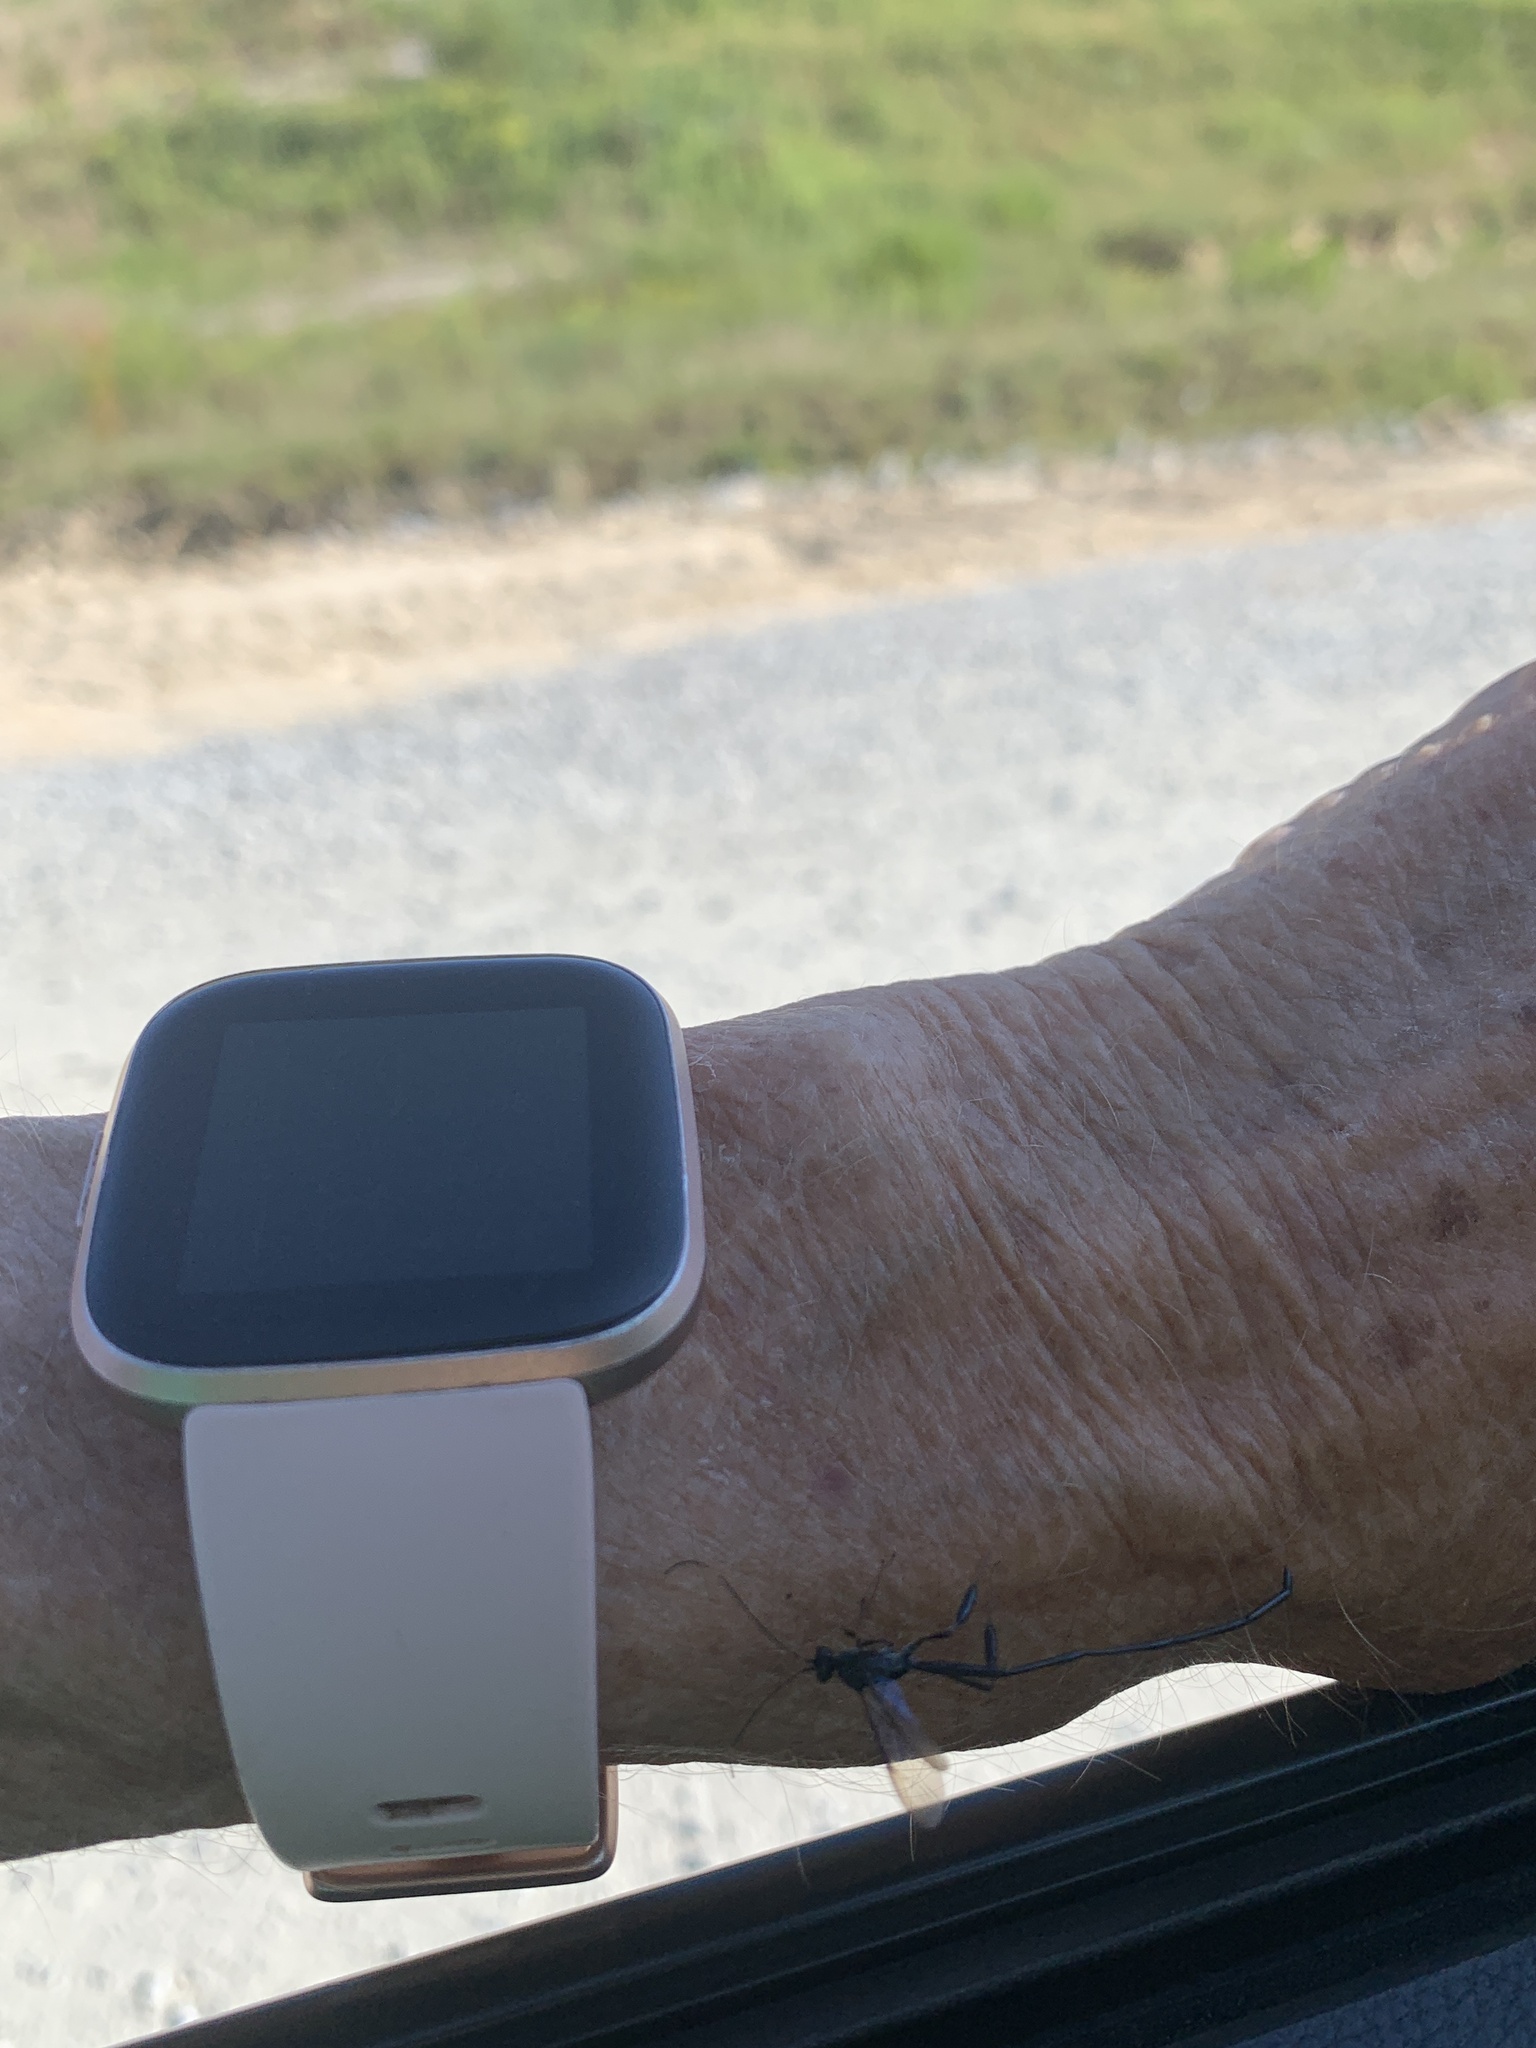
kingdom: Animalia
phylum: Arthropoda
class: Insecta
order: Hymenoptera
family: Pelecinidae
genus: Pelecinus
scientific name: Pelecinus polyturator
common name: American pelecinid wasp
